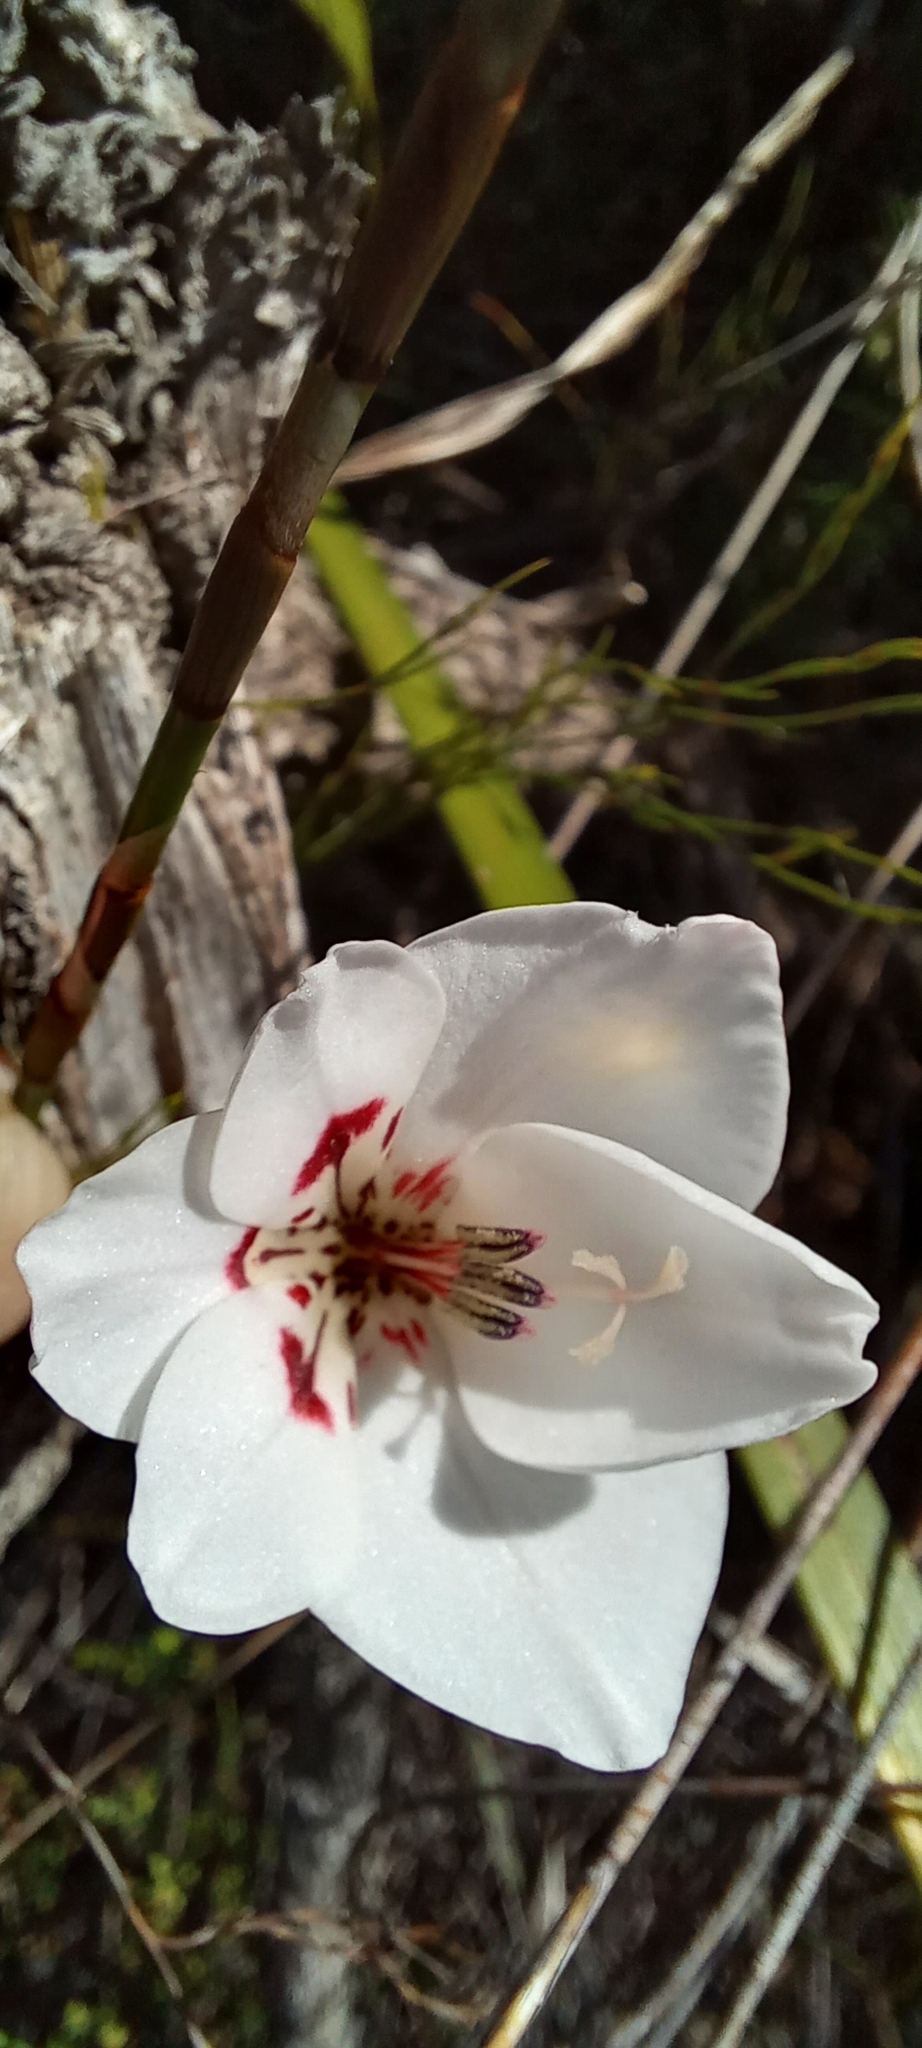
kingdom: Plantae
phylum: Tracheophyta
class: Liliopsida
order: Asparagales
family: Iridaceae
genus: Gladiolus
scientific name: Gladiolus debilis
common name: Painted-lady
